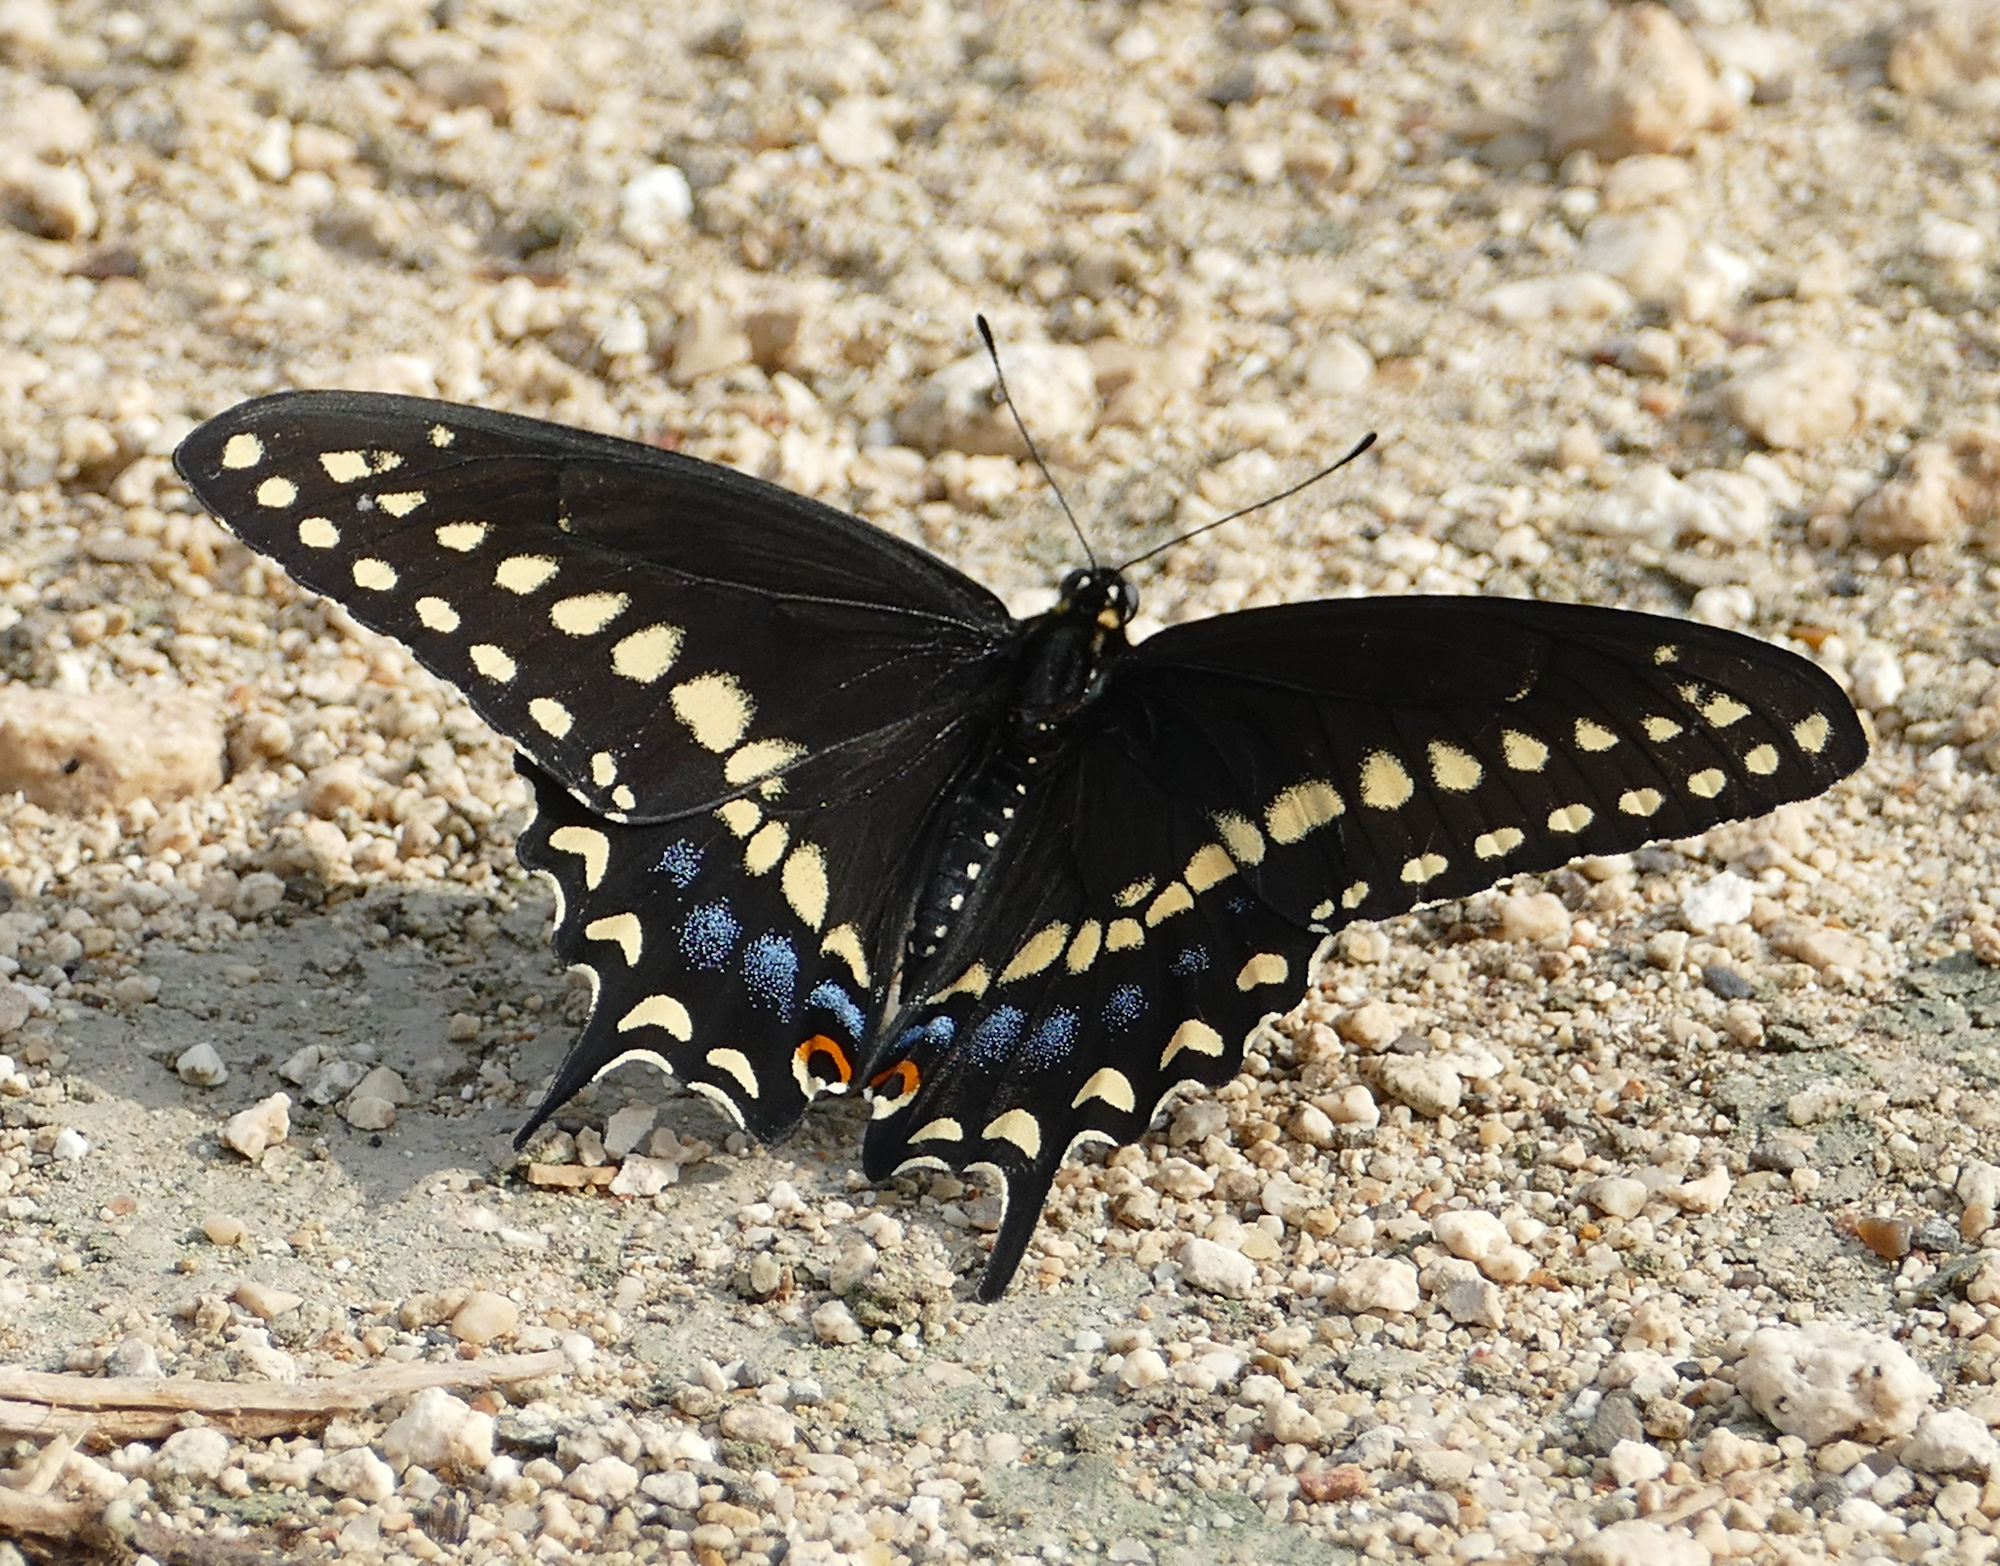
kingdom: Animalia
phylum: Arthropoda
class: Insecta
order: Lepidoptera
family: Papilionidae
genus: Papilio
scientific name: Papilio polyxenes
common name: Black swallowtail
